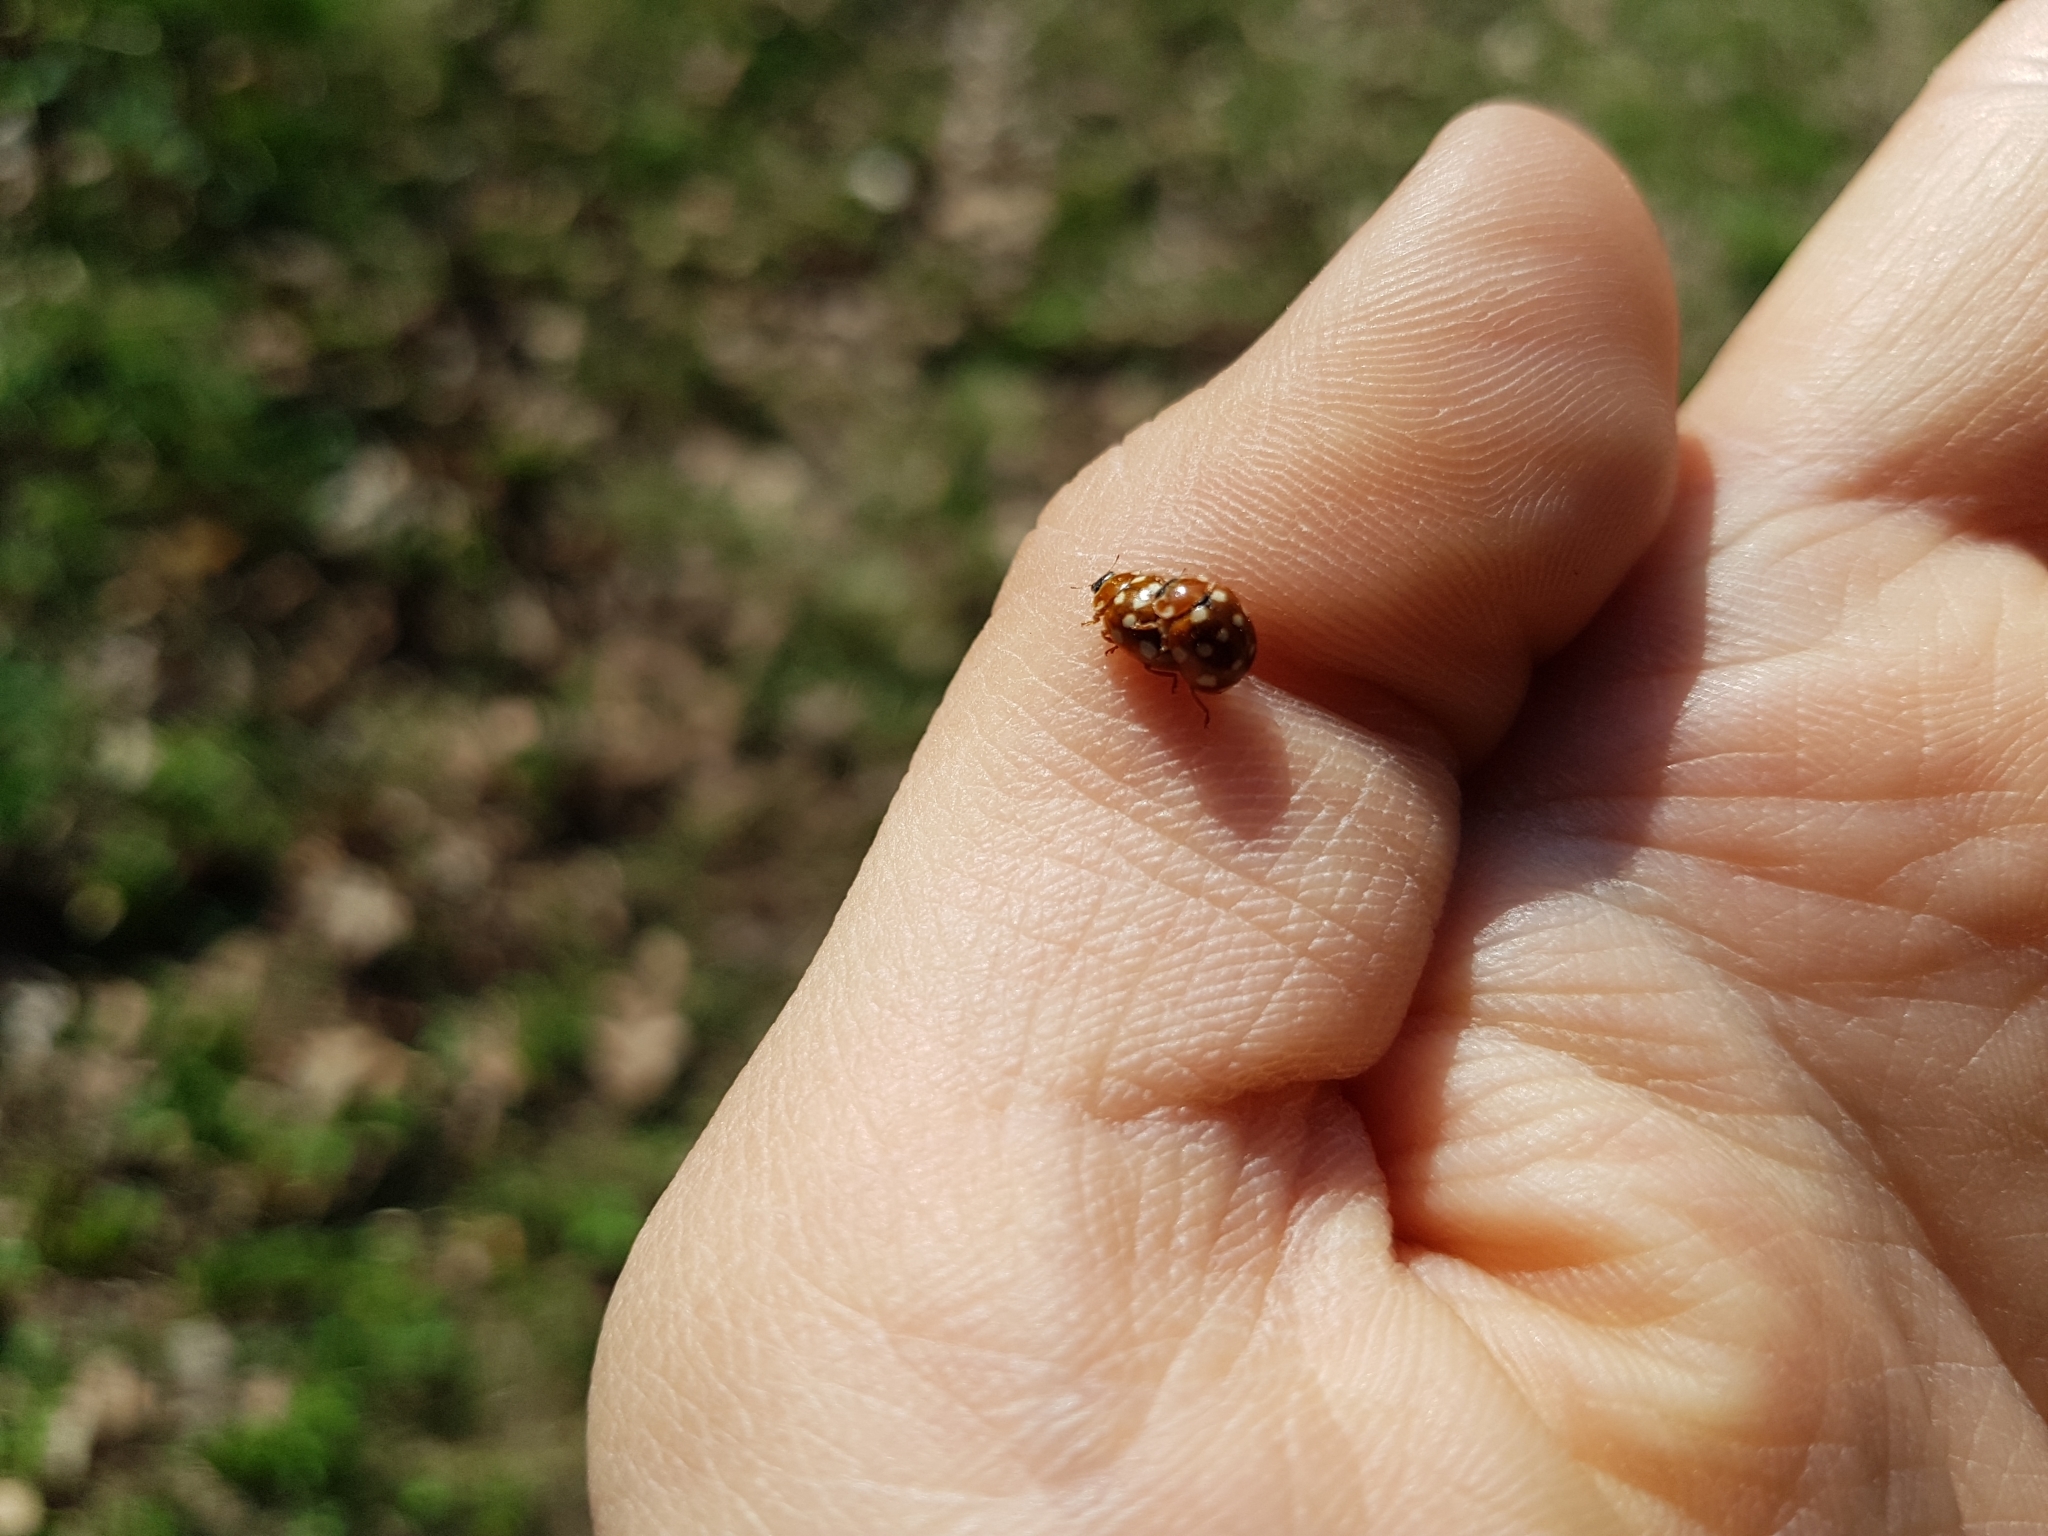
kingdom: Animalia
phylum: Arthropoda
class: Insecta
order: Coleoptera
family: Coccinellidae
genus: Calvia
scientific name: Calvia quatuordecimguttata
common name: Cream-spot ladybird
